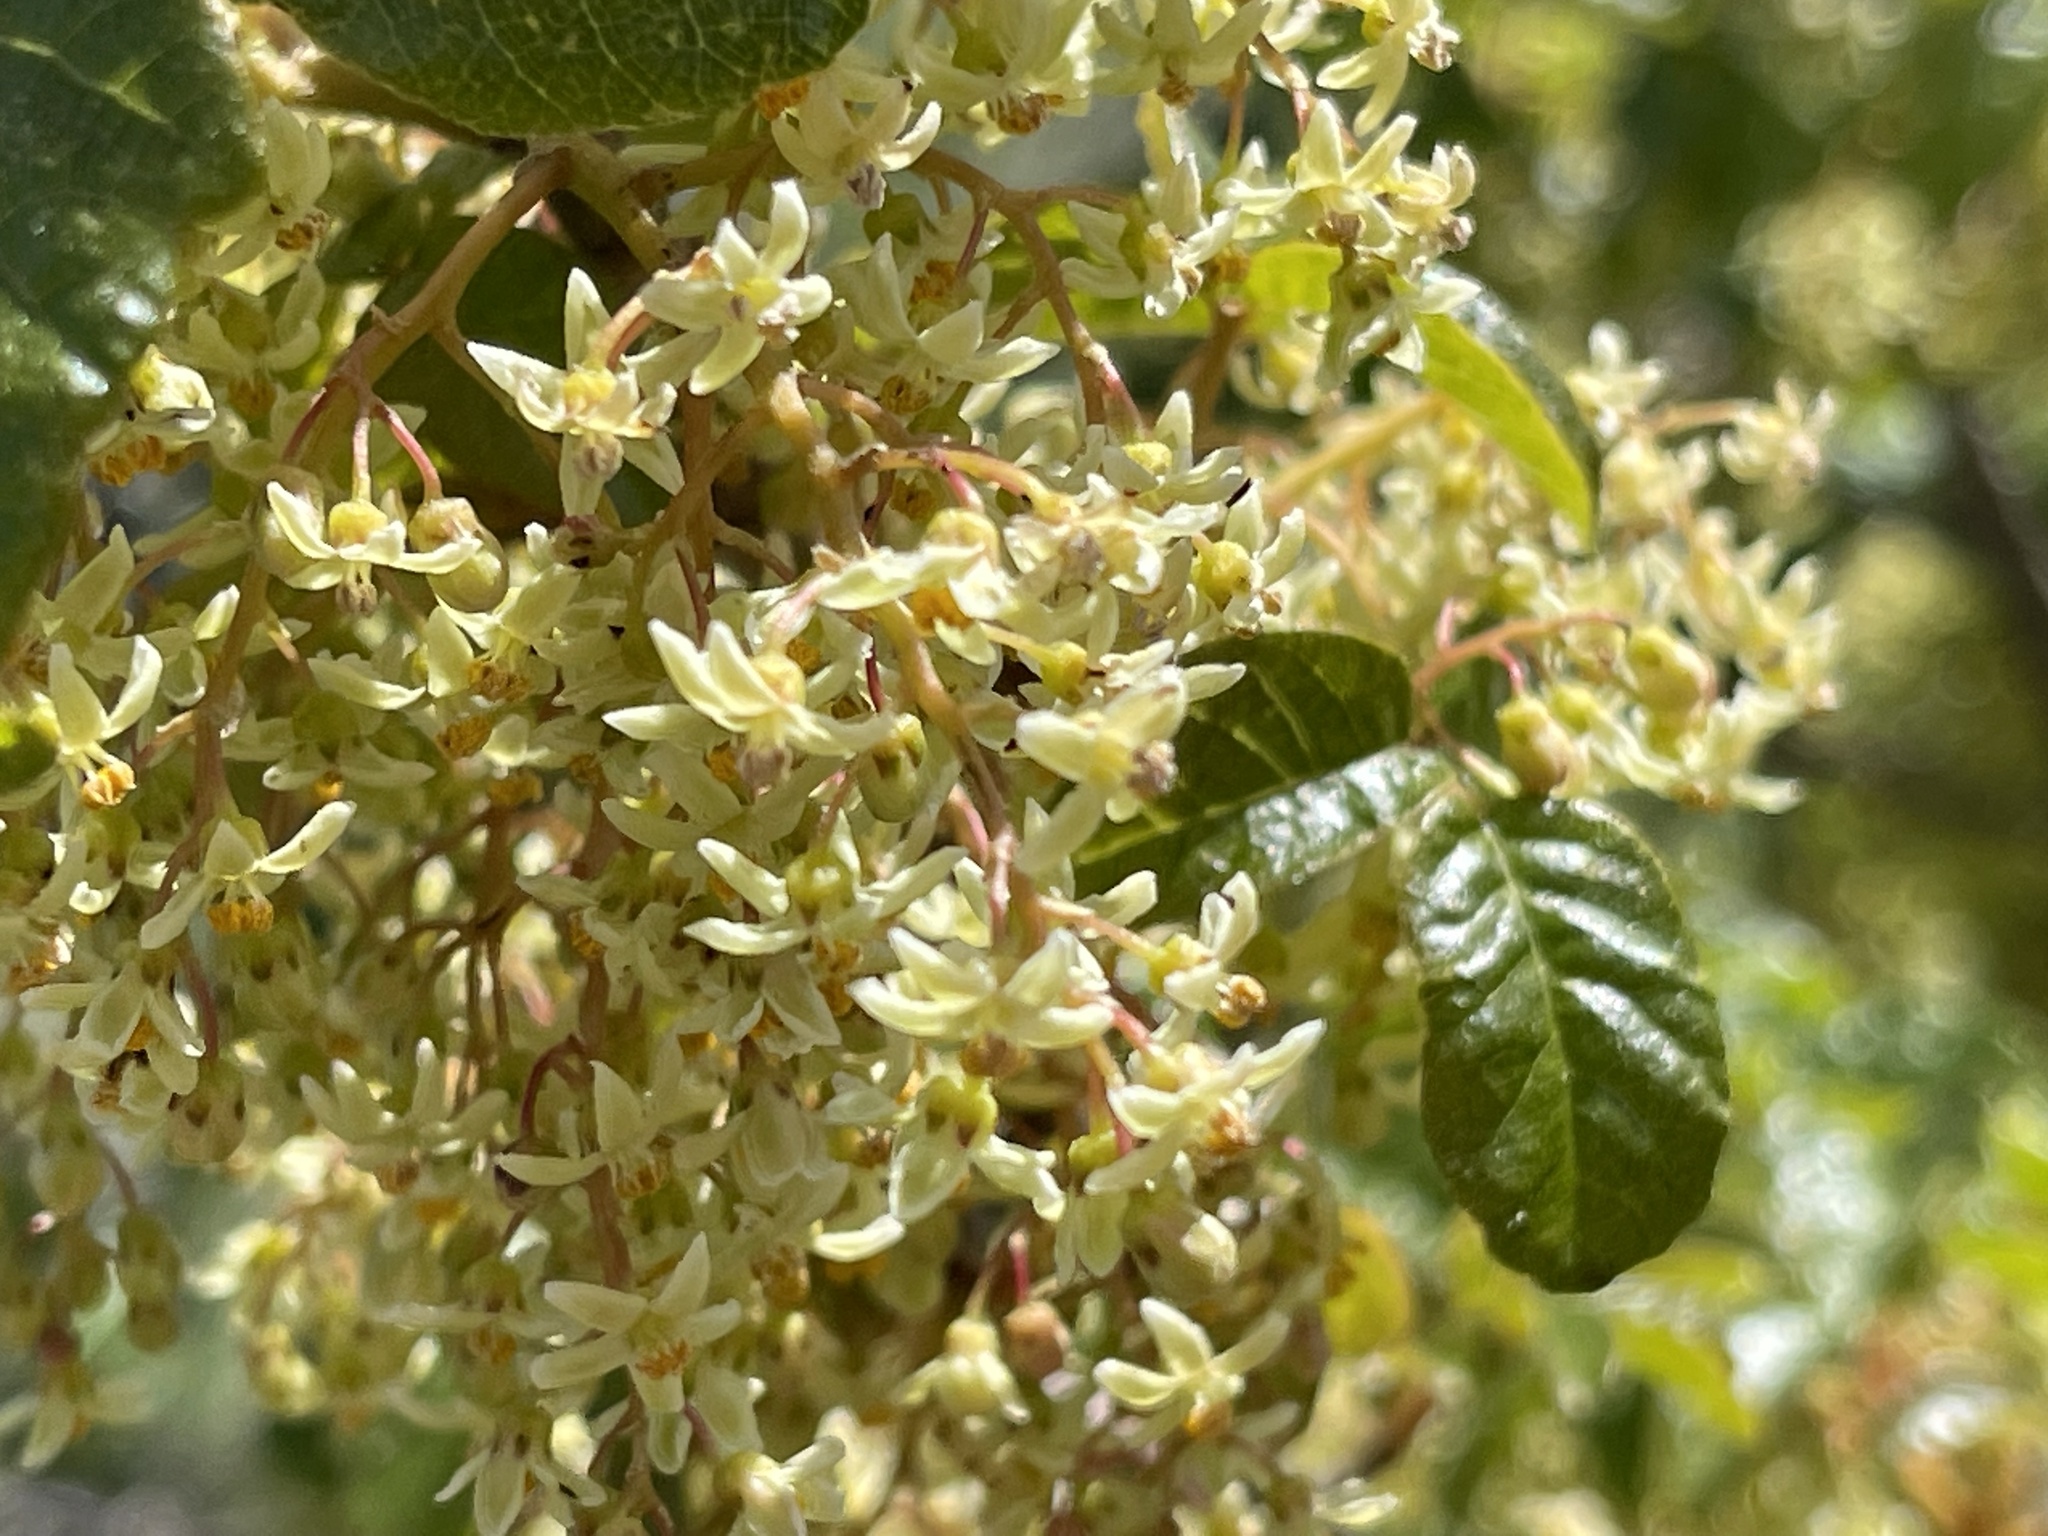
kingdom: Plantae
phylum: Tracheophyta
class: Magnoliopsida
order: Sapindales
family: Anacardiaceae
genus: Toxicodendron
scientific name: Toxicodendron diversilobum
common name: Pacific poison-oak
